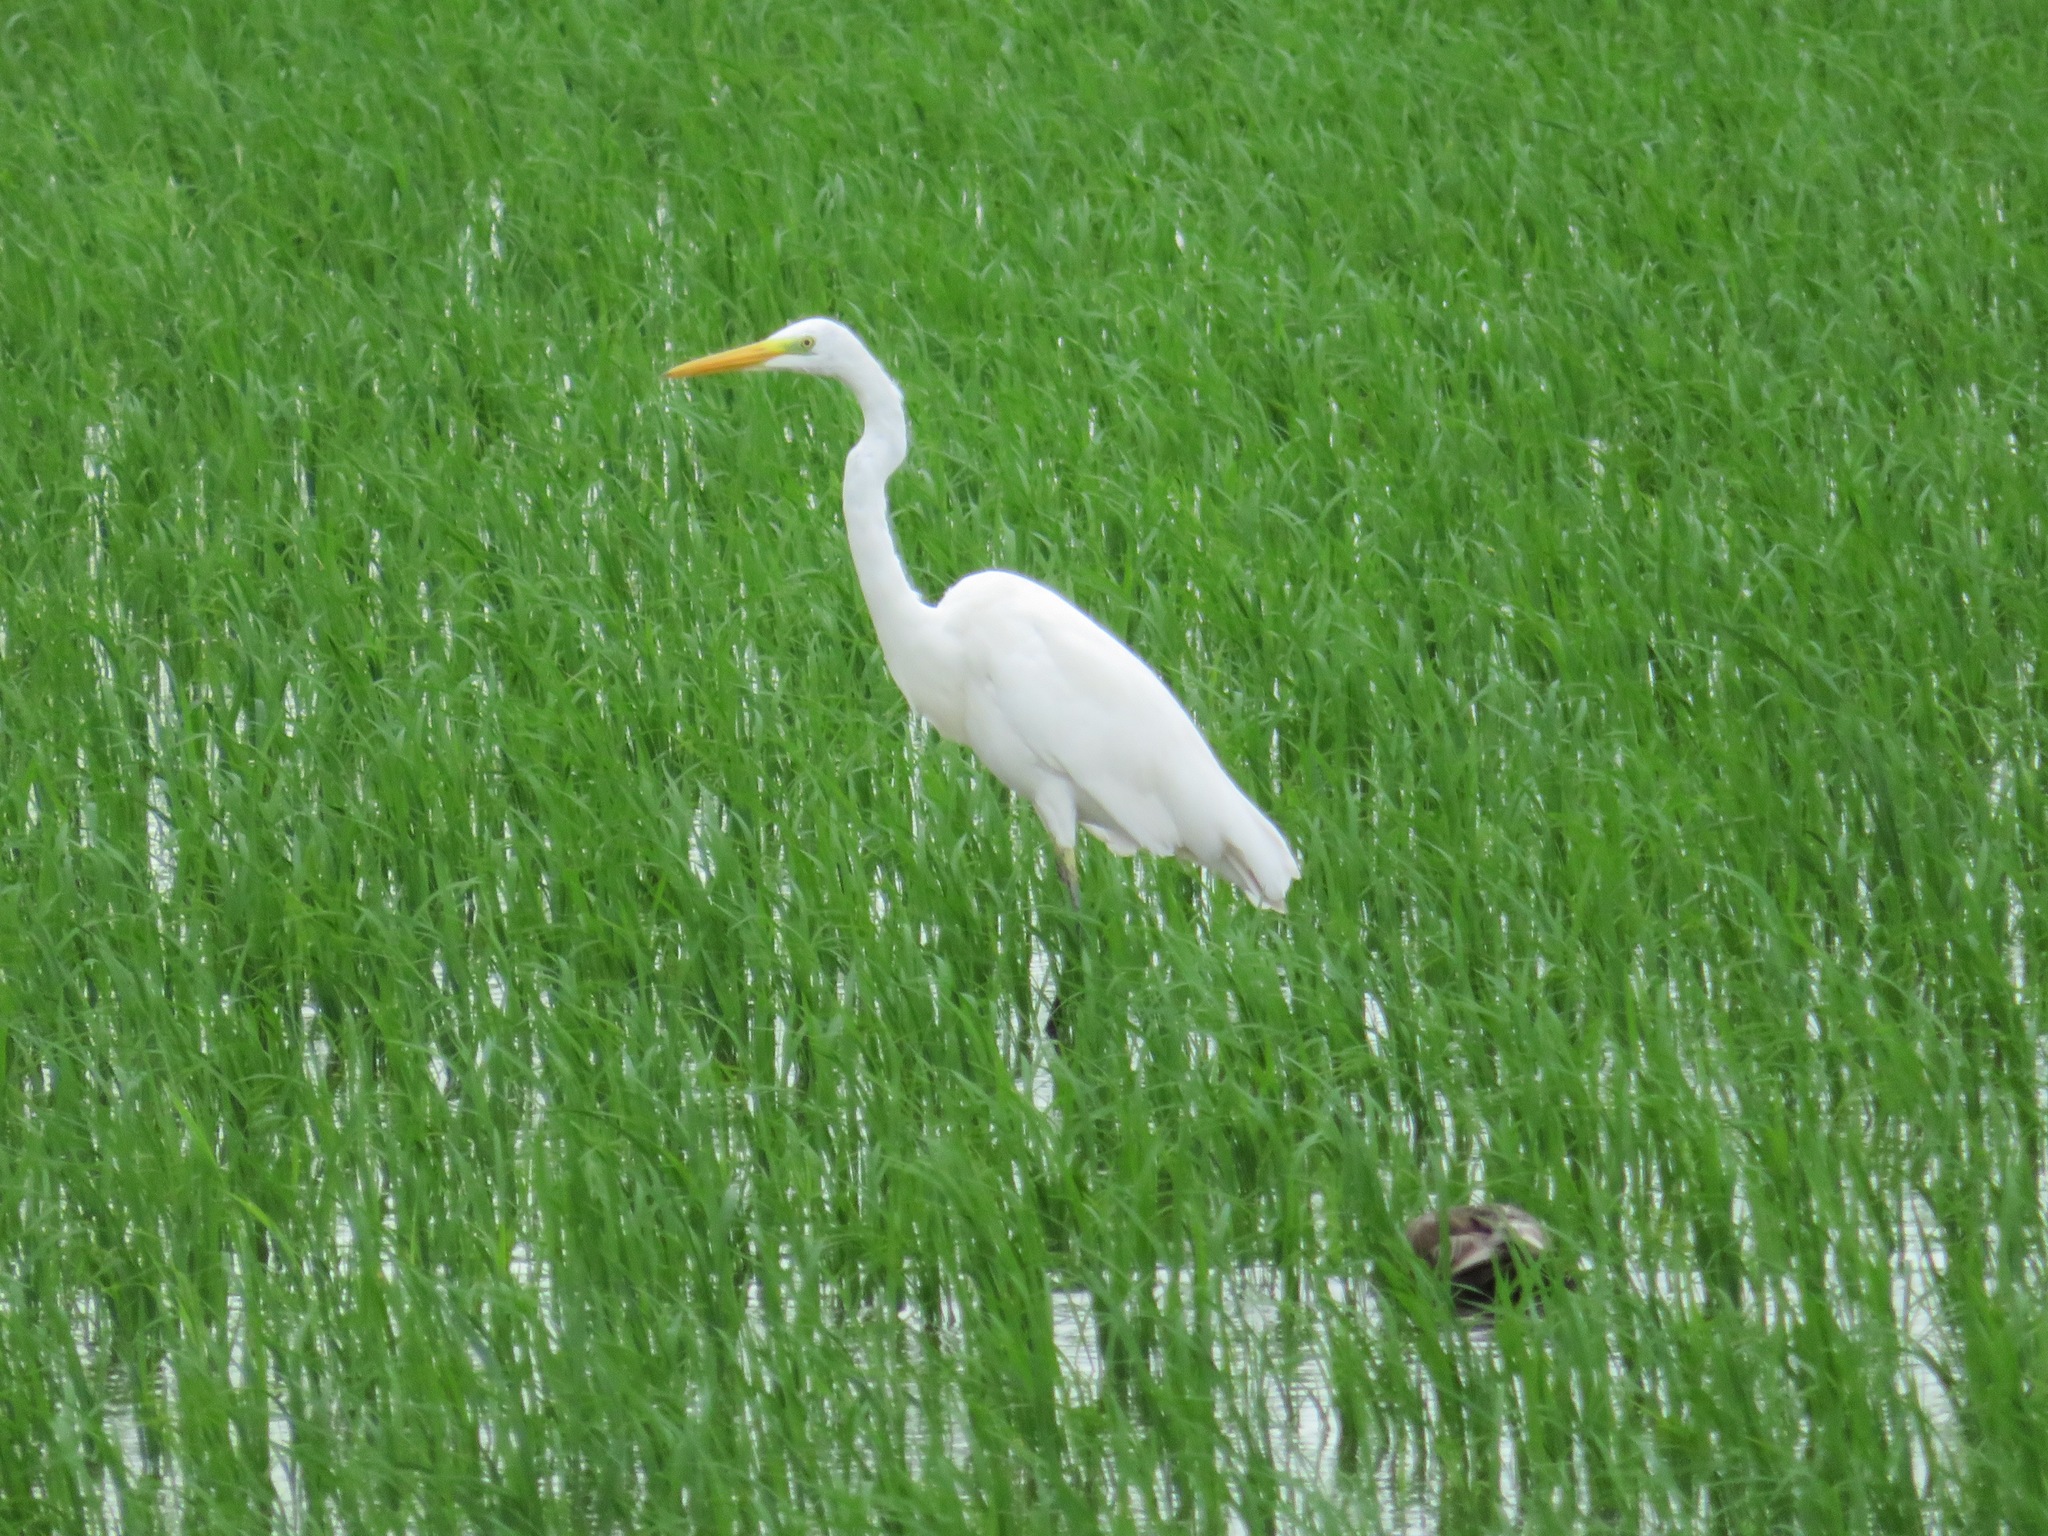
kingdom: Animalia
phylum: Chordata
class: Aves
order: Pelecaniformes
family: Ardeidae
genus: Ardea
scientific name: Ardea alba
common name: Great egret
